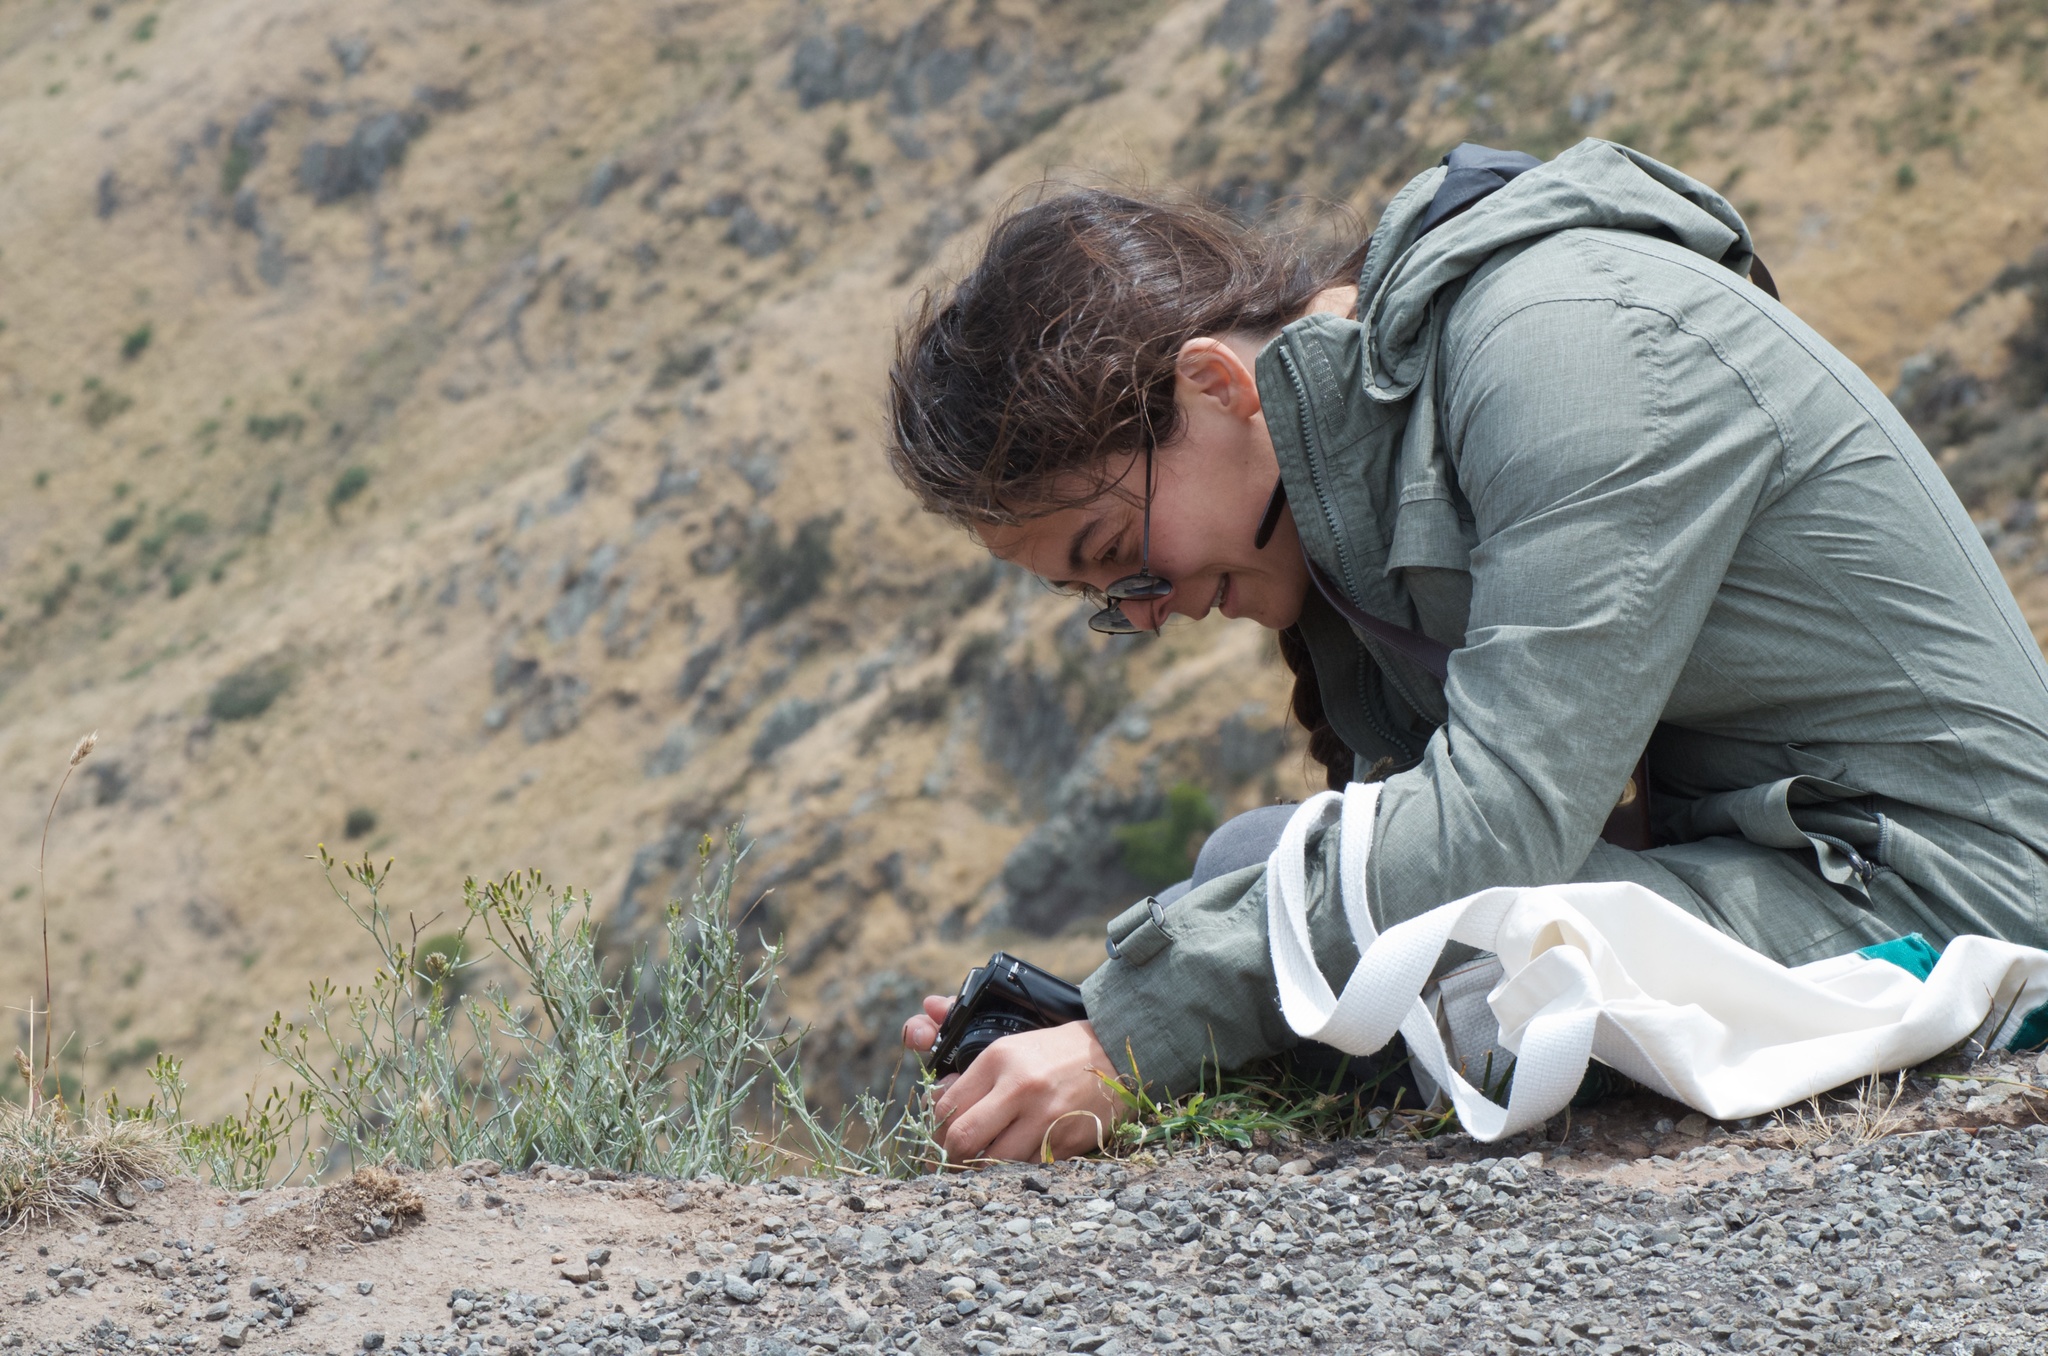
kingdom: Plantae
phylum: Tracheophyta
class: Magnoliopsida
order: Asterales
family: Asteraceae
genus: Senecio
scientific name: Senecio quadridentatus
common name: Cotton fireweed
